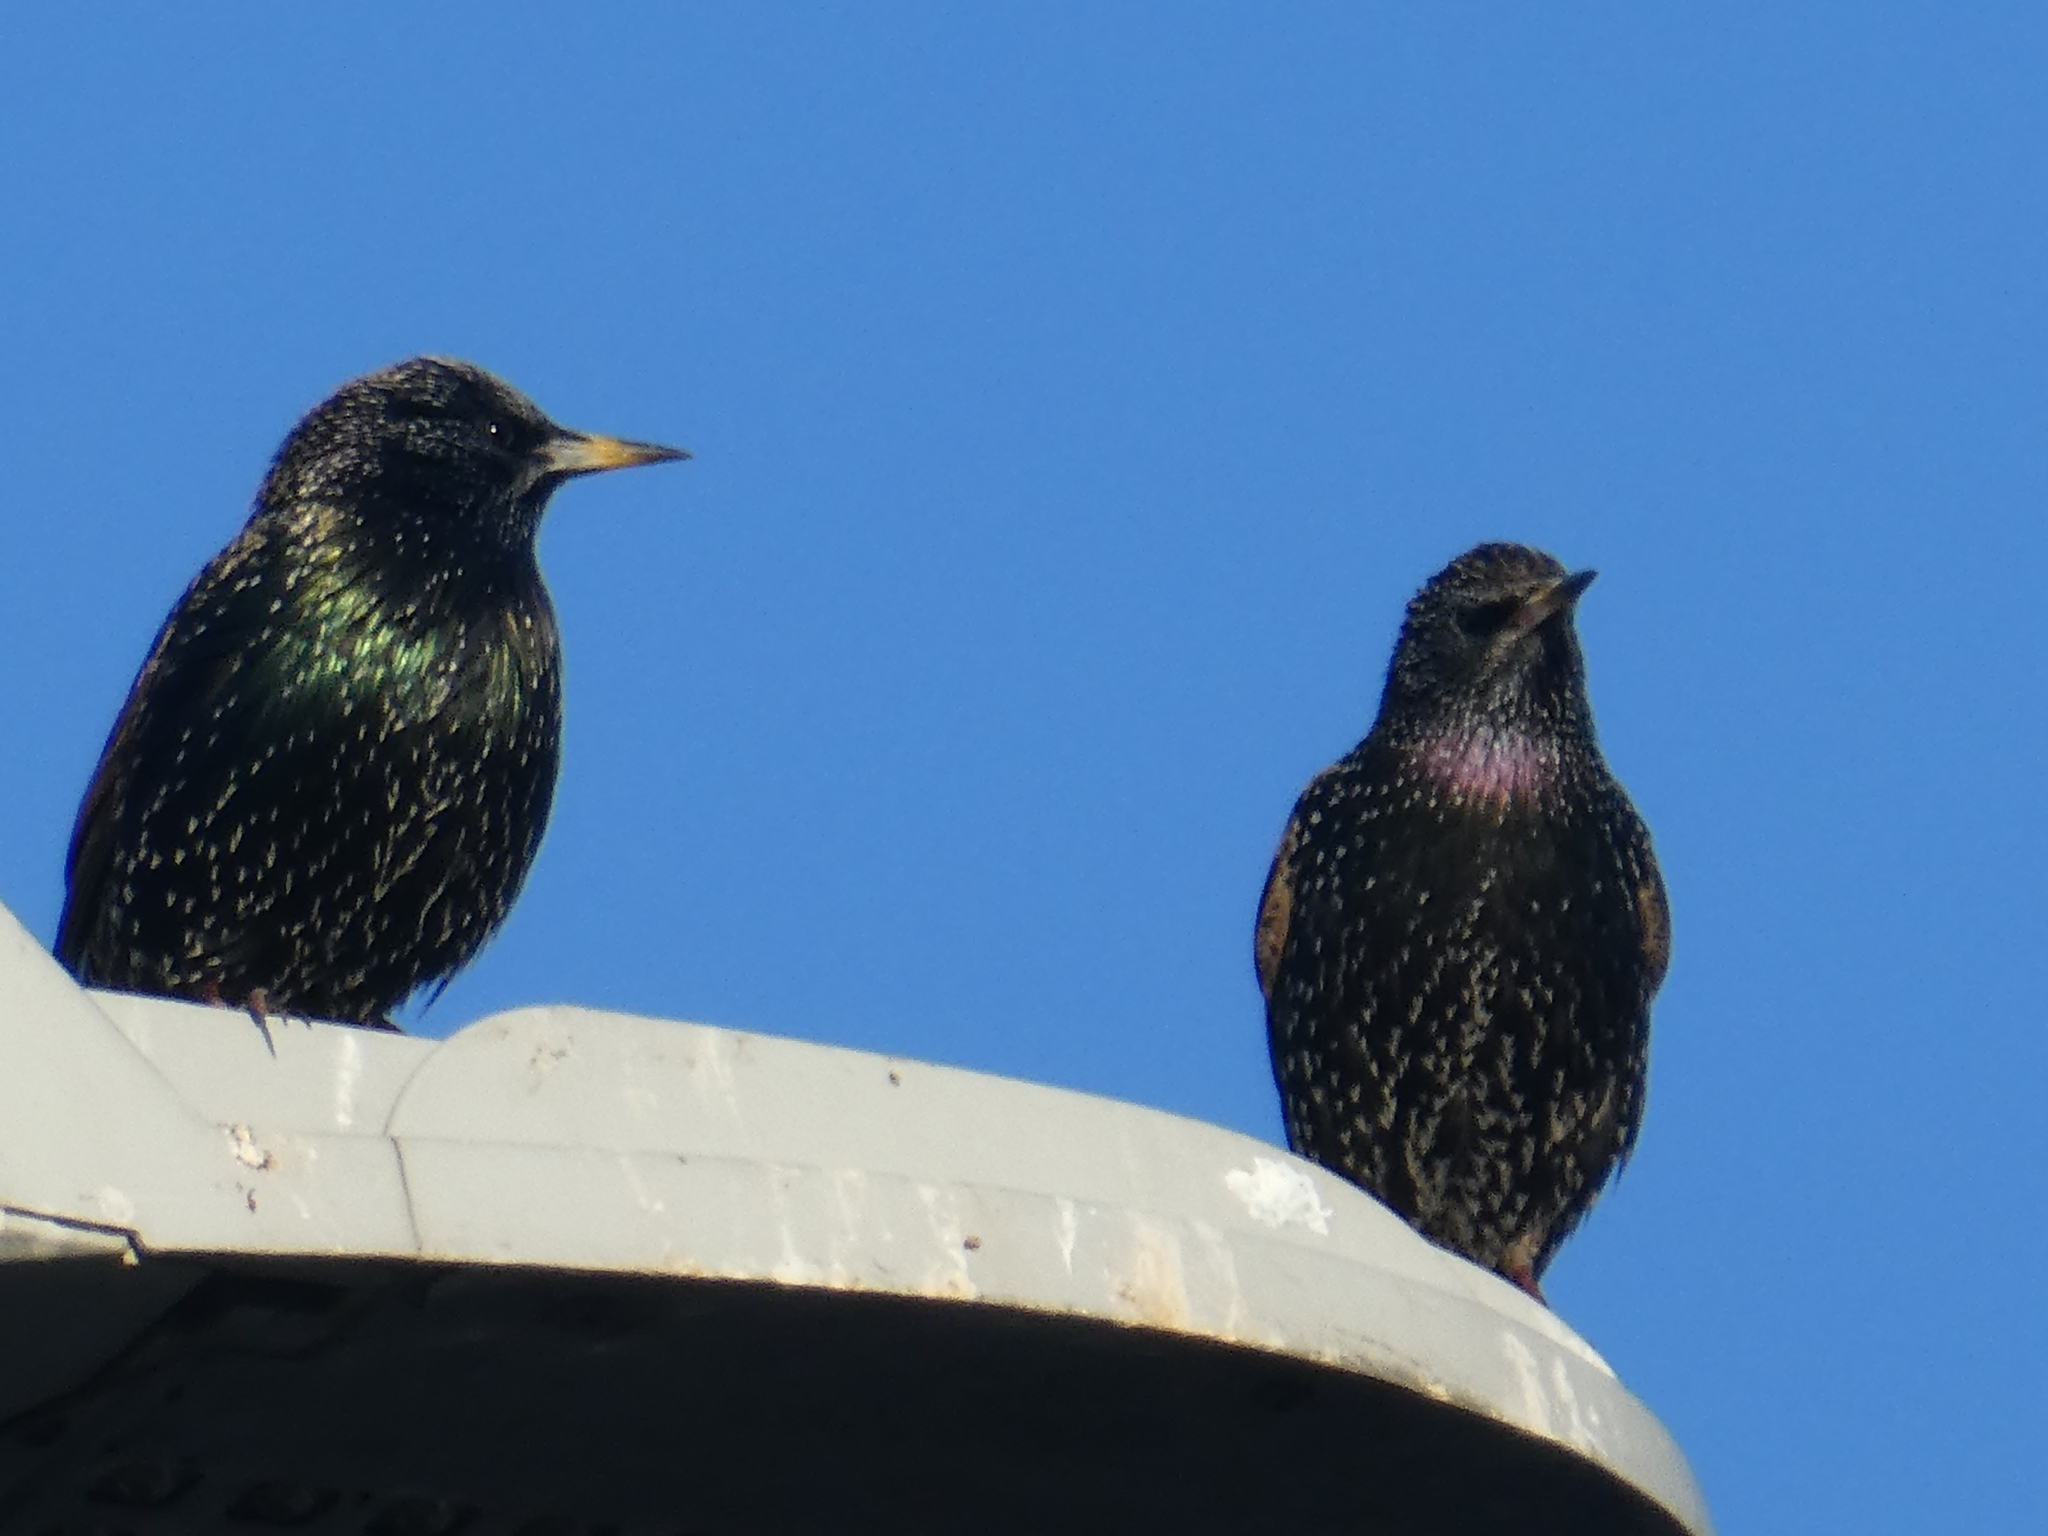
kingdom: Animalia
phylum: Chordata
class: Aves
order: Passeriformes
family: Sturnidae
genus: Sturnus
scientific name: Sturnus vulgaris
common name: Common starling
